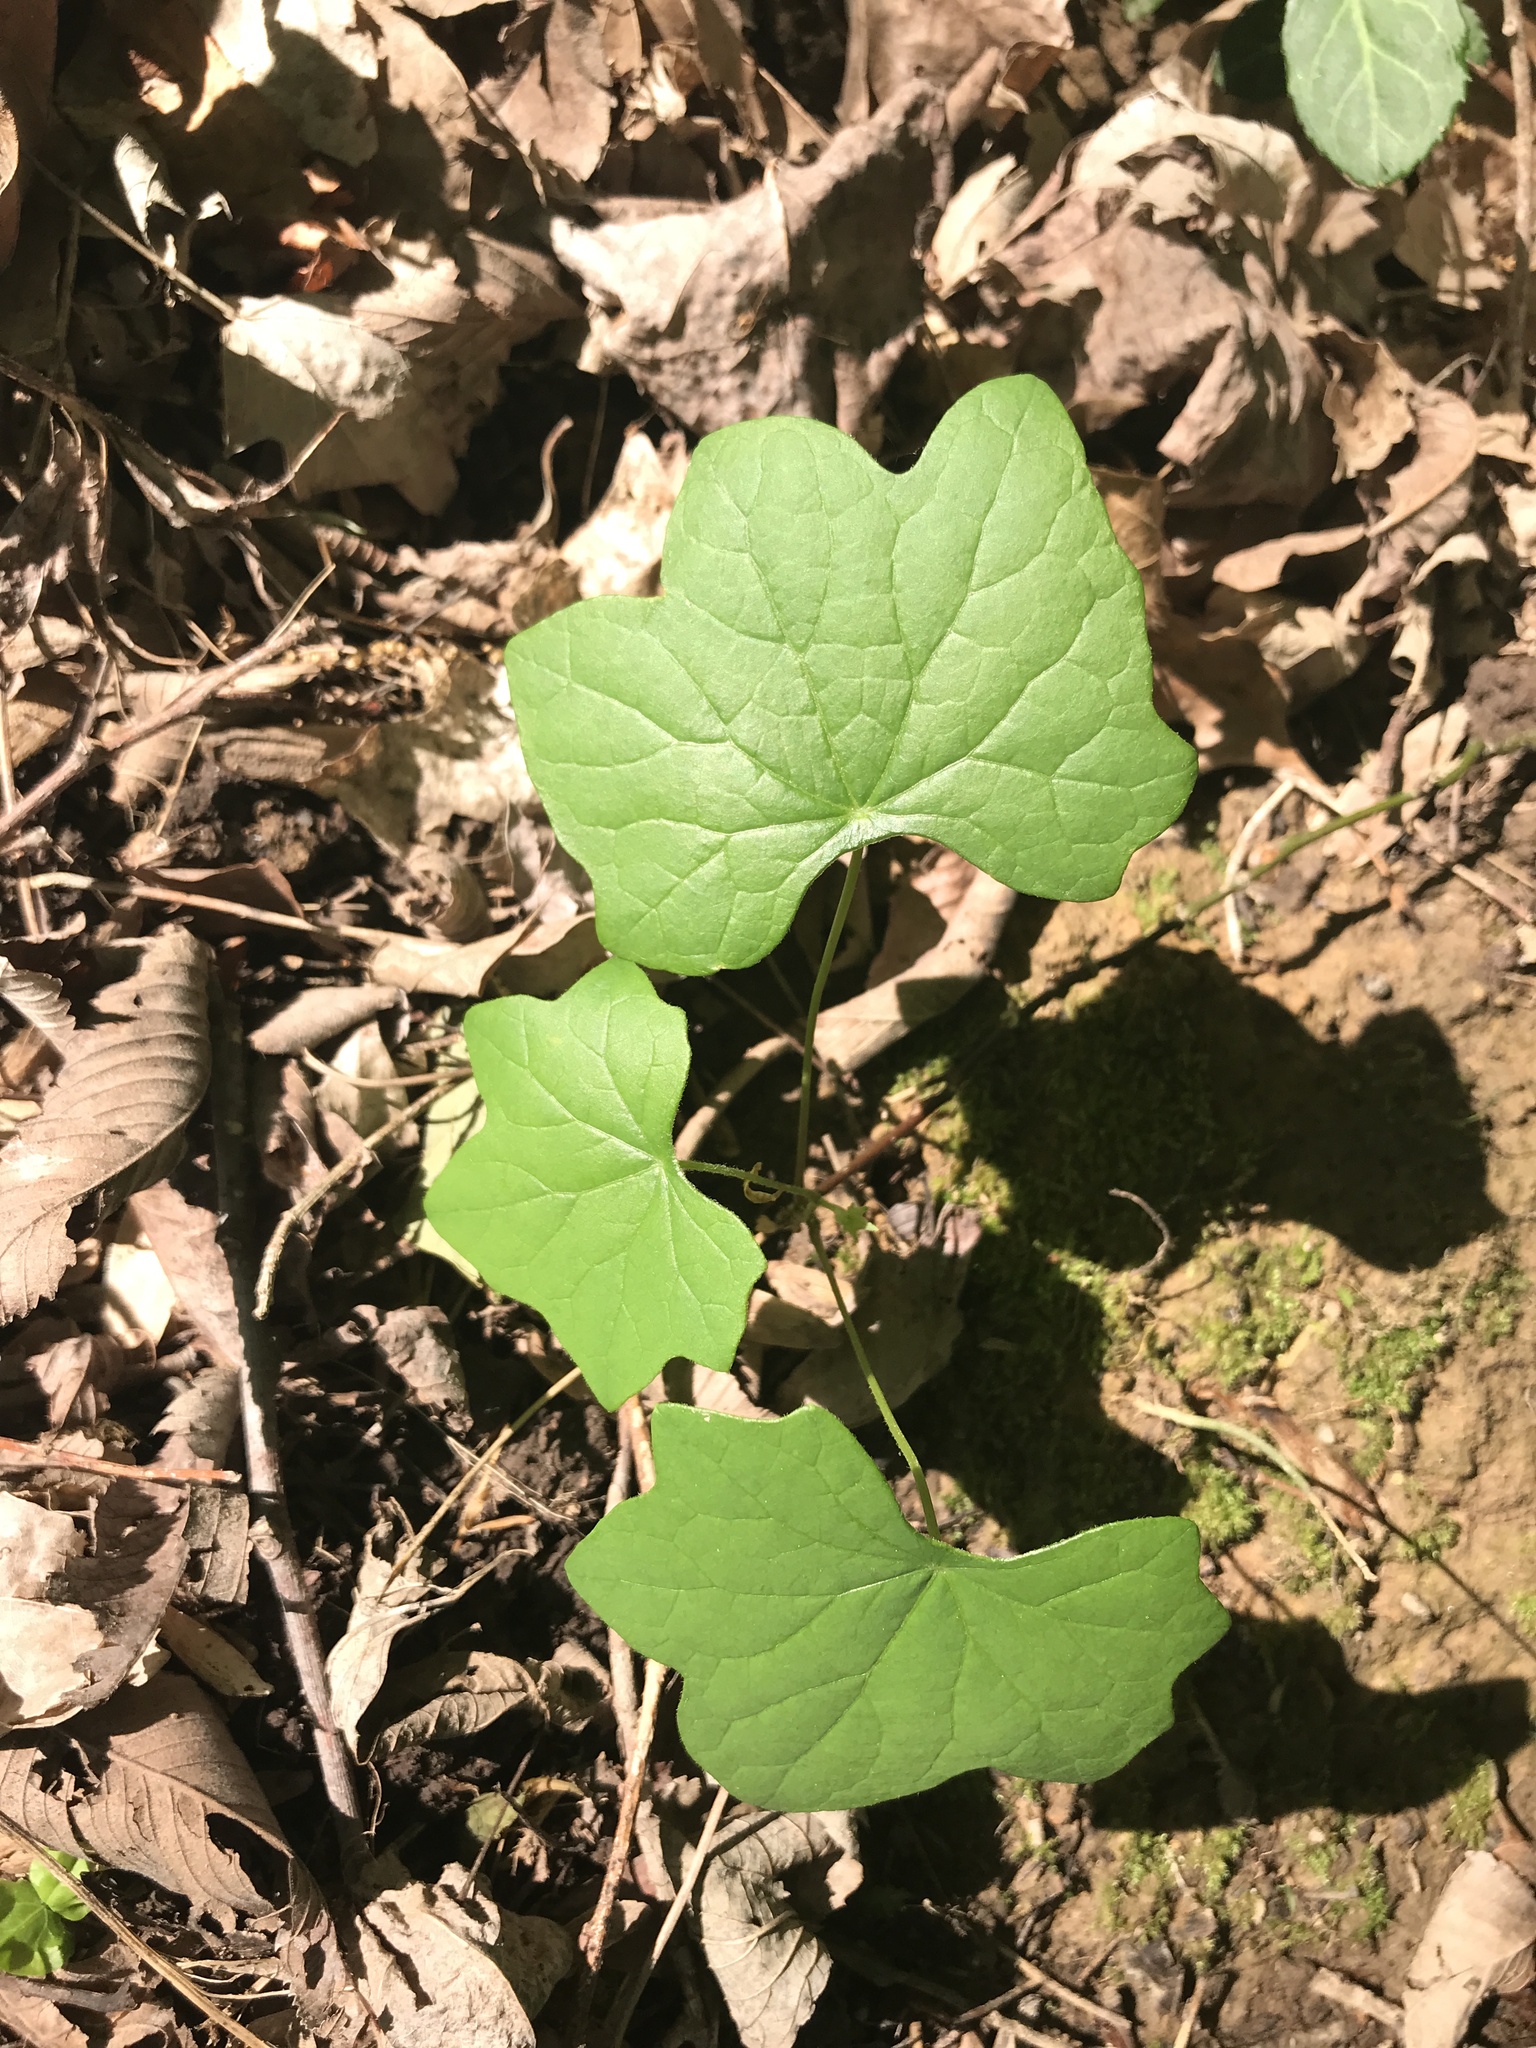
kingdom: Plantae
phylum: Tracheophyta
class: Magnoliopsida
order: Ranunculales
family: Menispermaceae
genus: Menispermum
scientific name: Menispermum canadense
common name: Moonseed
